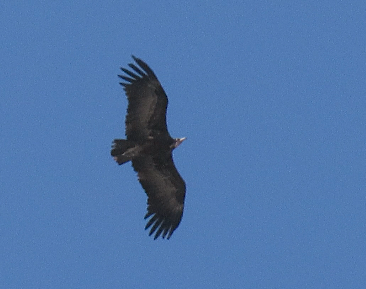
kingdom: Animalia
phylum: Chordata
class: Aves
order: Accipitriformes
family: Accipitridae
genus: Necrosyrtes
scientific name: Necrosyrtes monachus
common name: Hooded vulture
